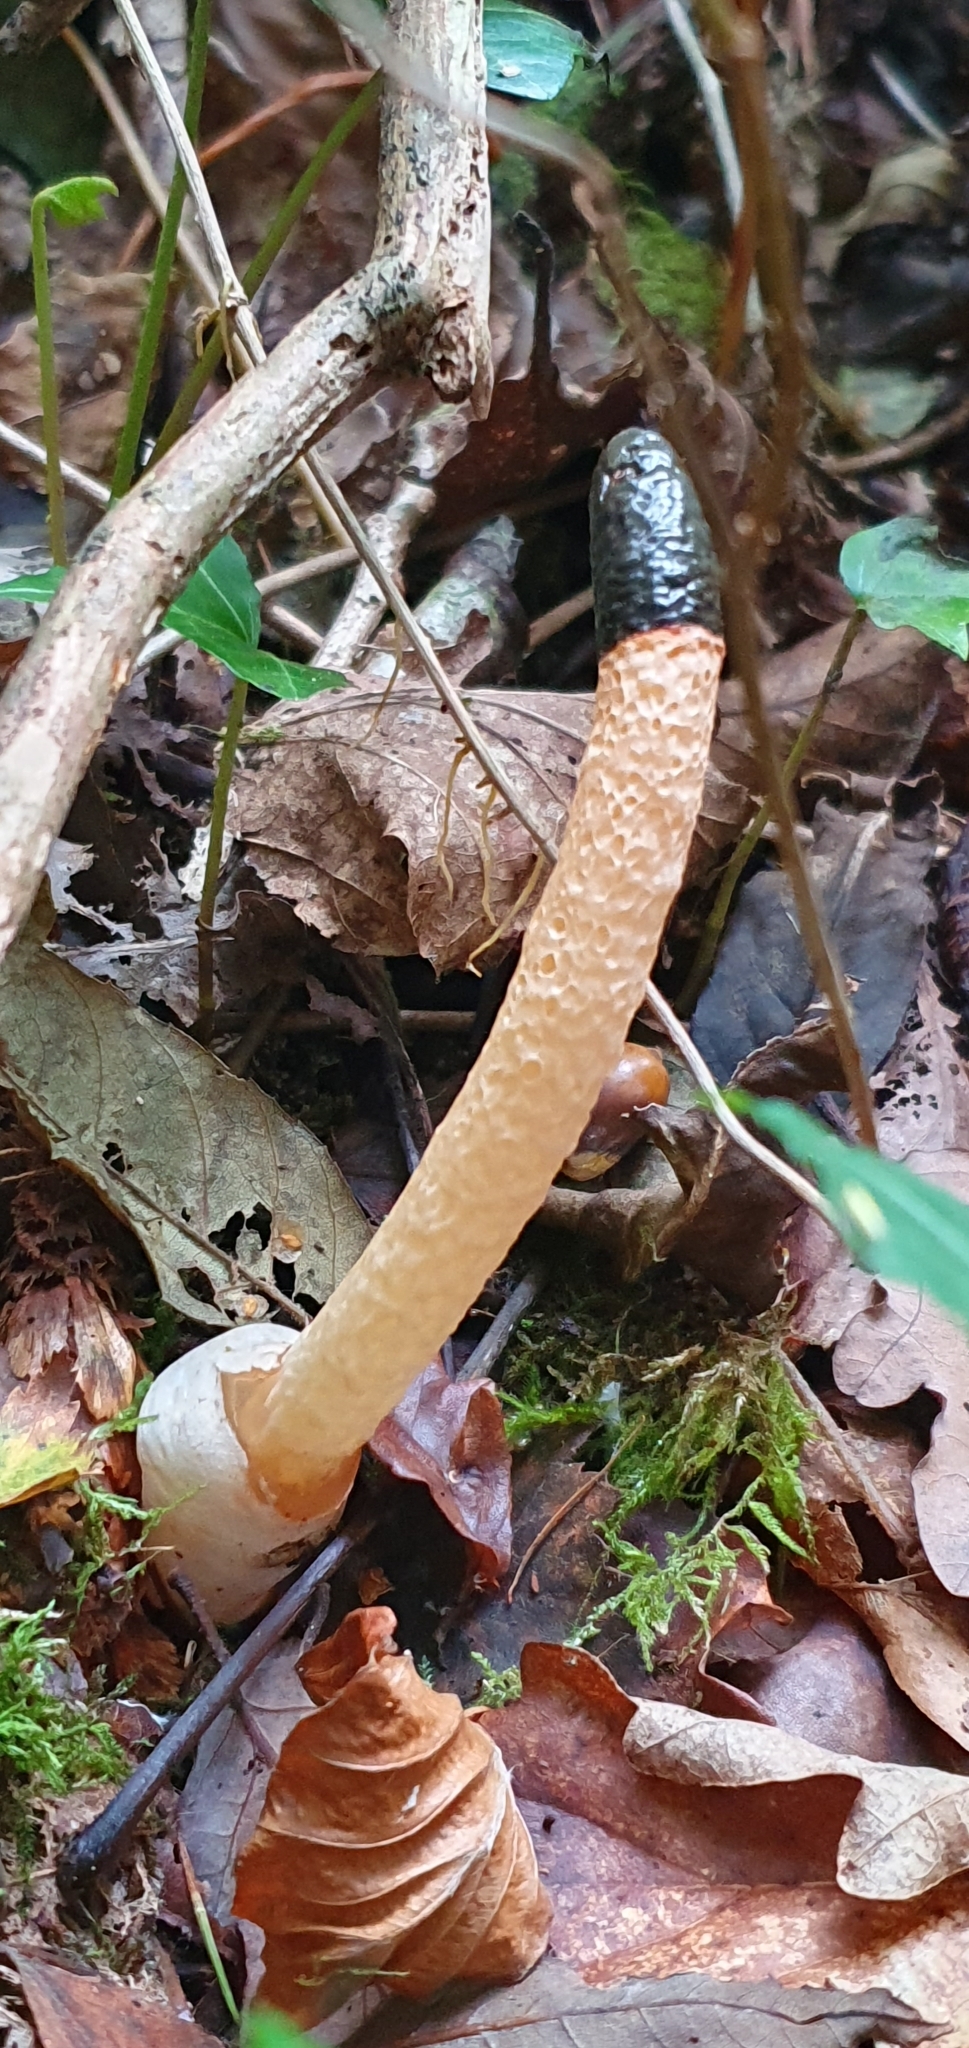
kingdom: Fungi
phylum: Basidiomycota
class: Agaricomycetes
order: Phallales
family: Phallaceae
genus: Mutinus
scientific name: Mutinus caninus
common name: Dog stinkhorn
